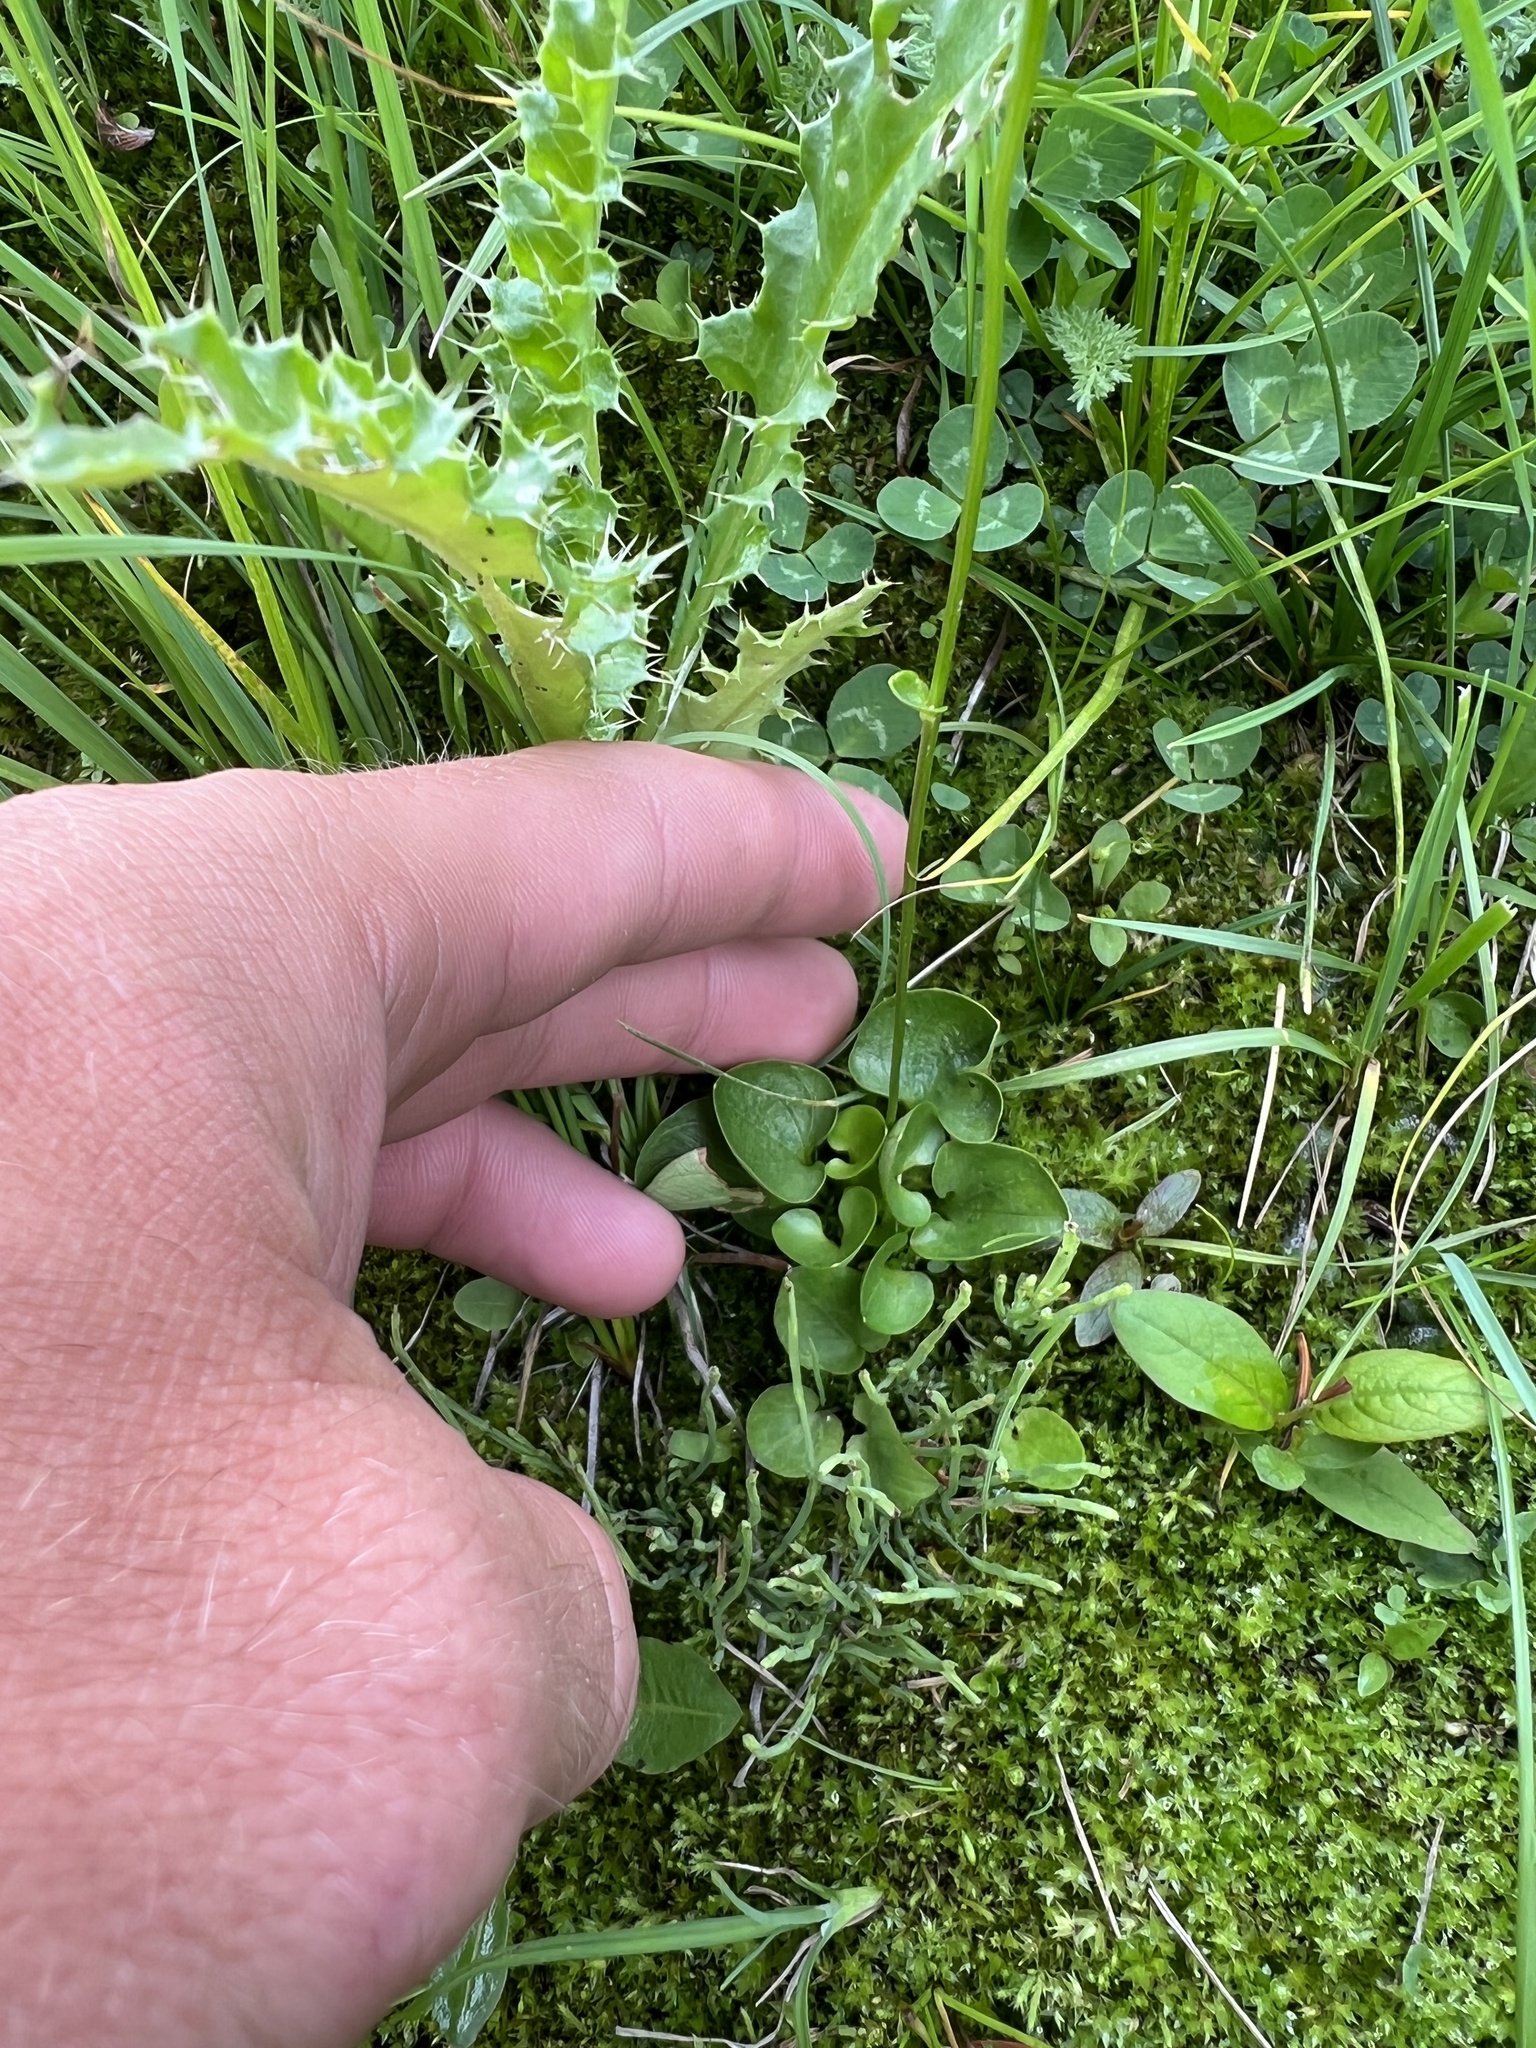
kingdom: Plantae
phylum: Tracheophyta
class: Magnoliopsida
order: Celastrales
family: Parnassiaceae
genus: Parnassia
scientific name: Parnassia fimbriata
